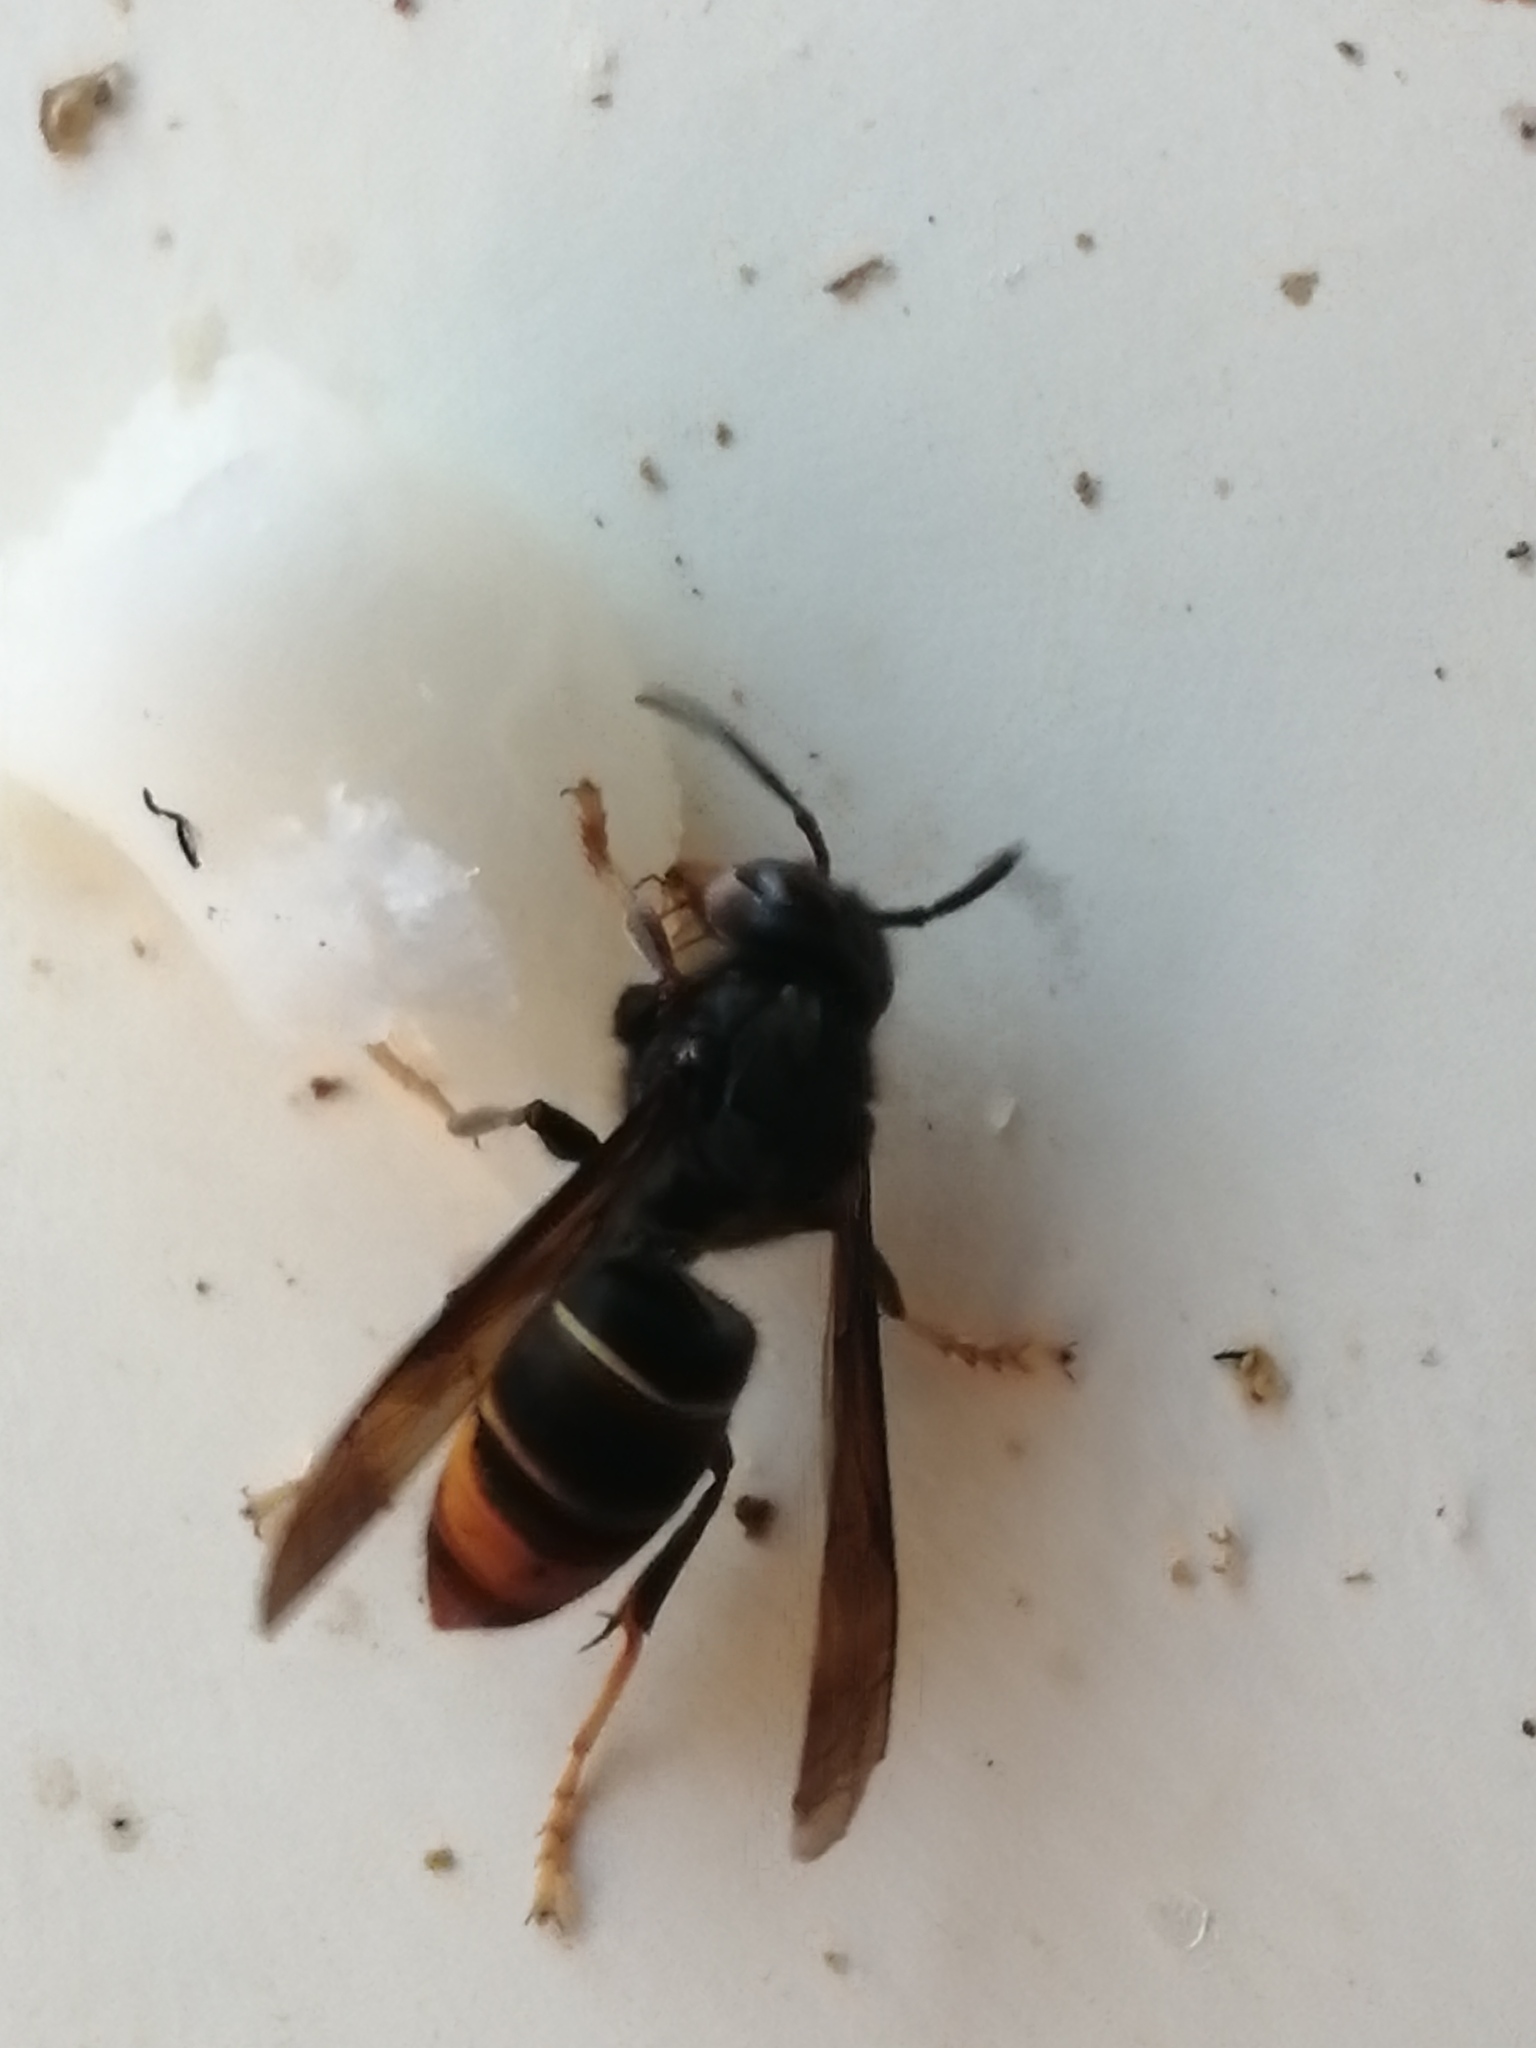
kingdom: Animalia
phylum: Arthropoda
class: Insecta
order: Hymenoptera
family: Vespidae
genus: Vespa
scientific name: Vespa velutina
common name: Asian hornet
